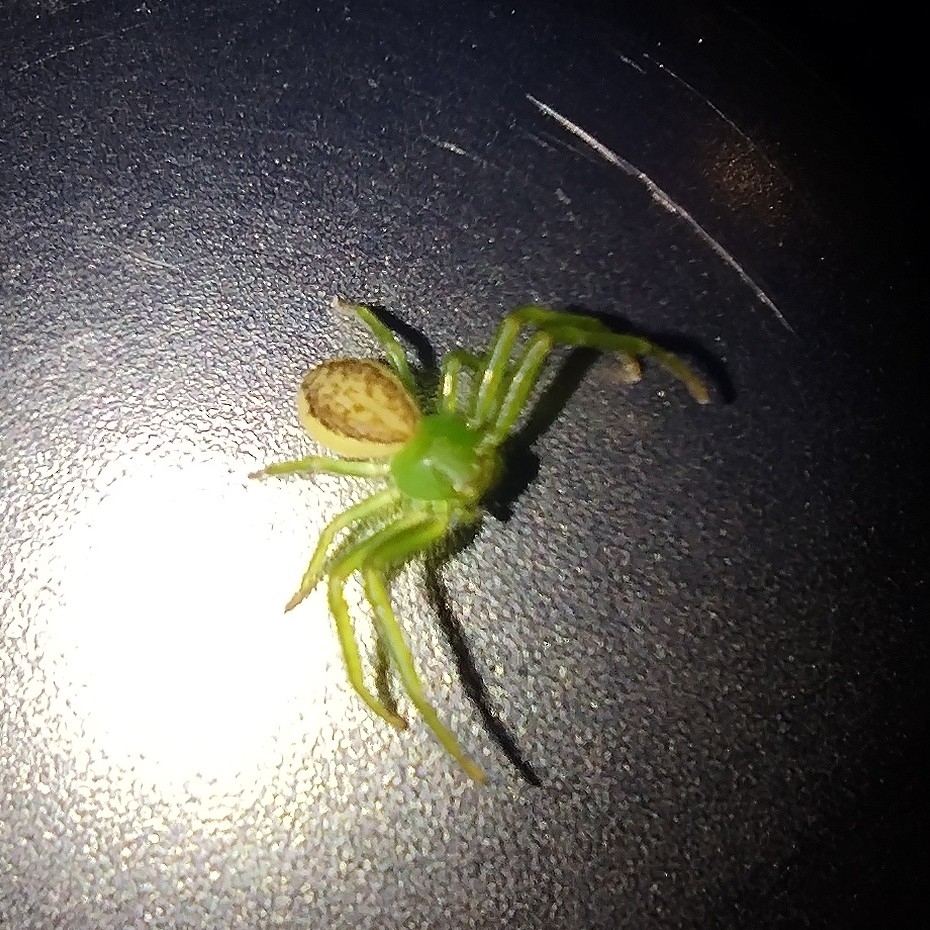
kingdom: Animalia
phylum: Arthropoda
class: Arachnida
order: Araneae
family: Thomisidae
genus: Diaea
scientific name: Diaea dorsata
